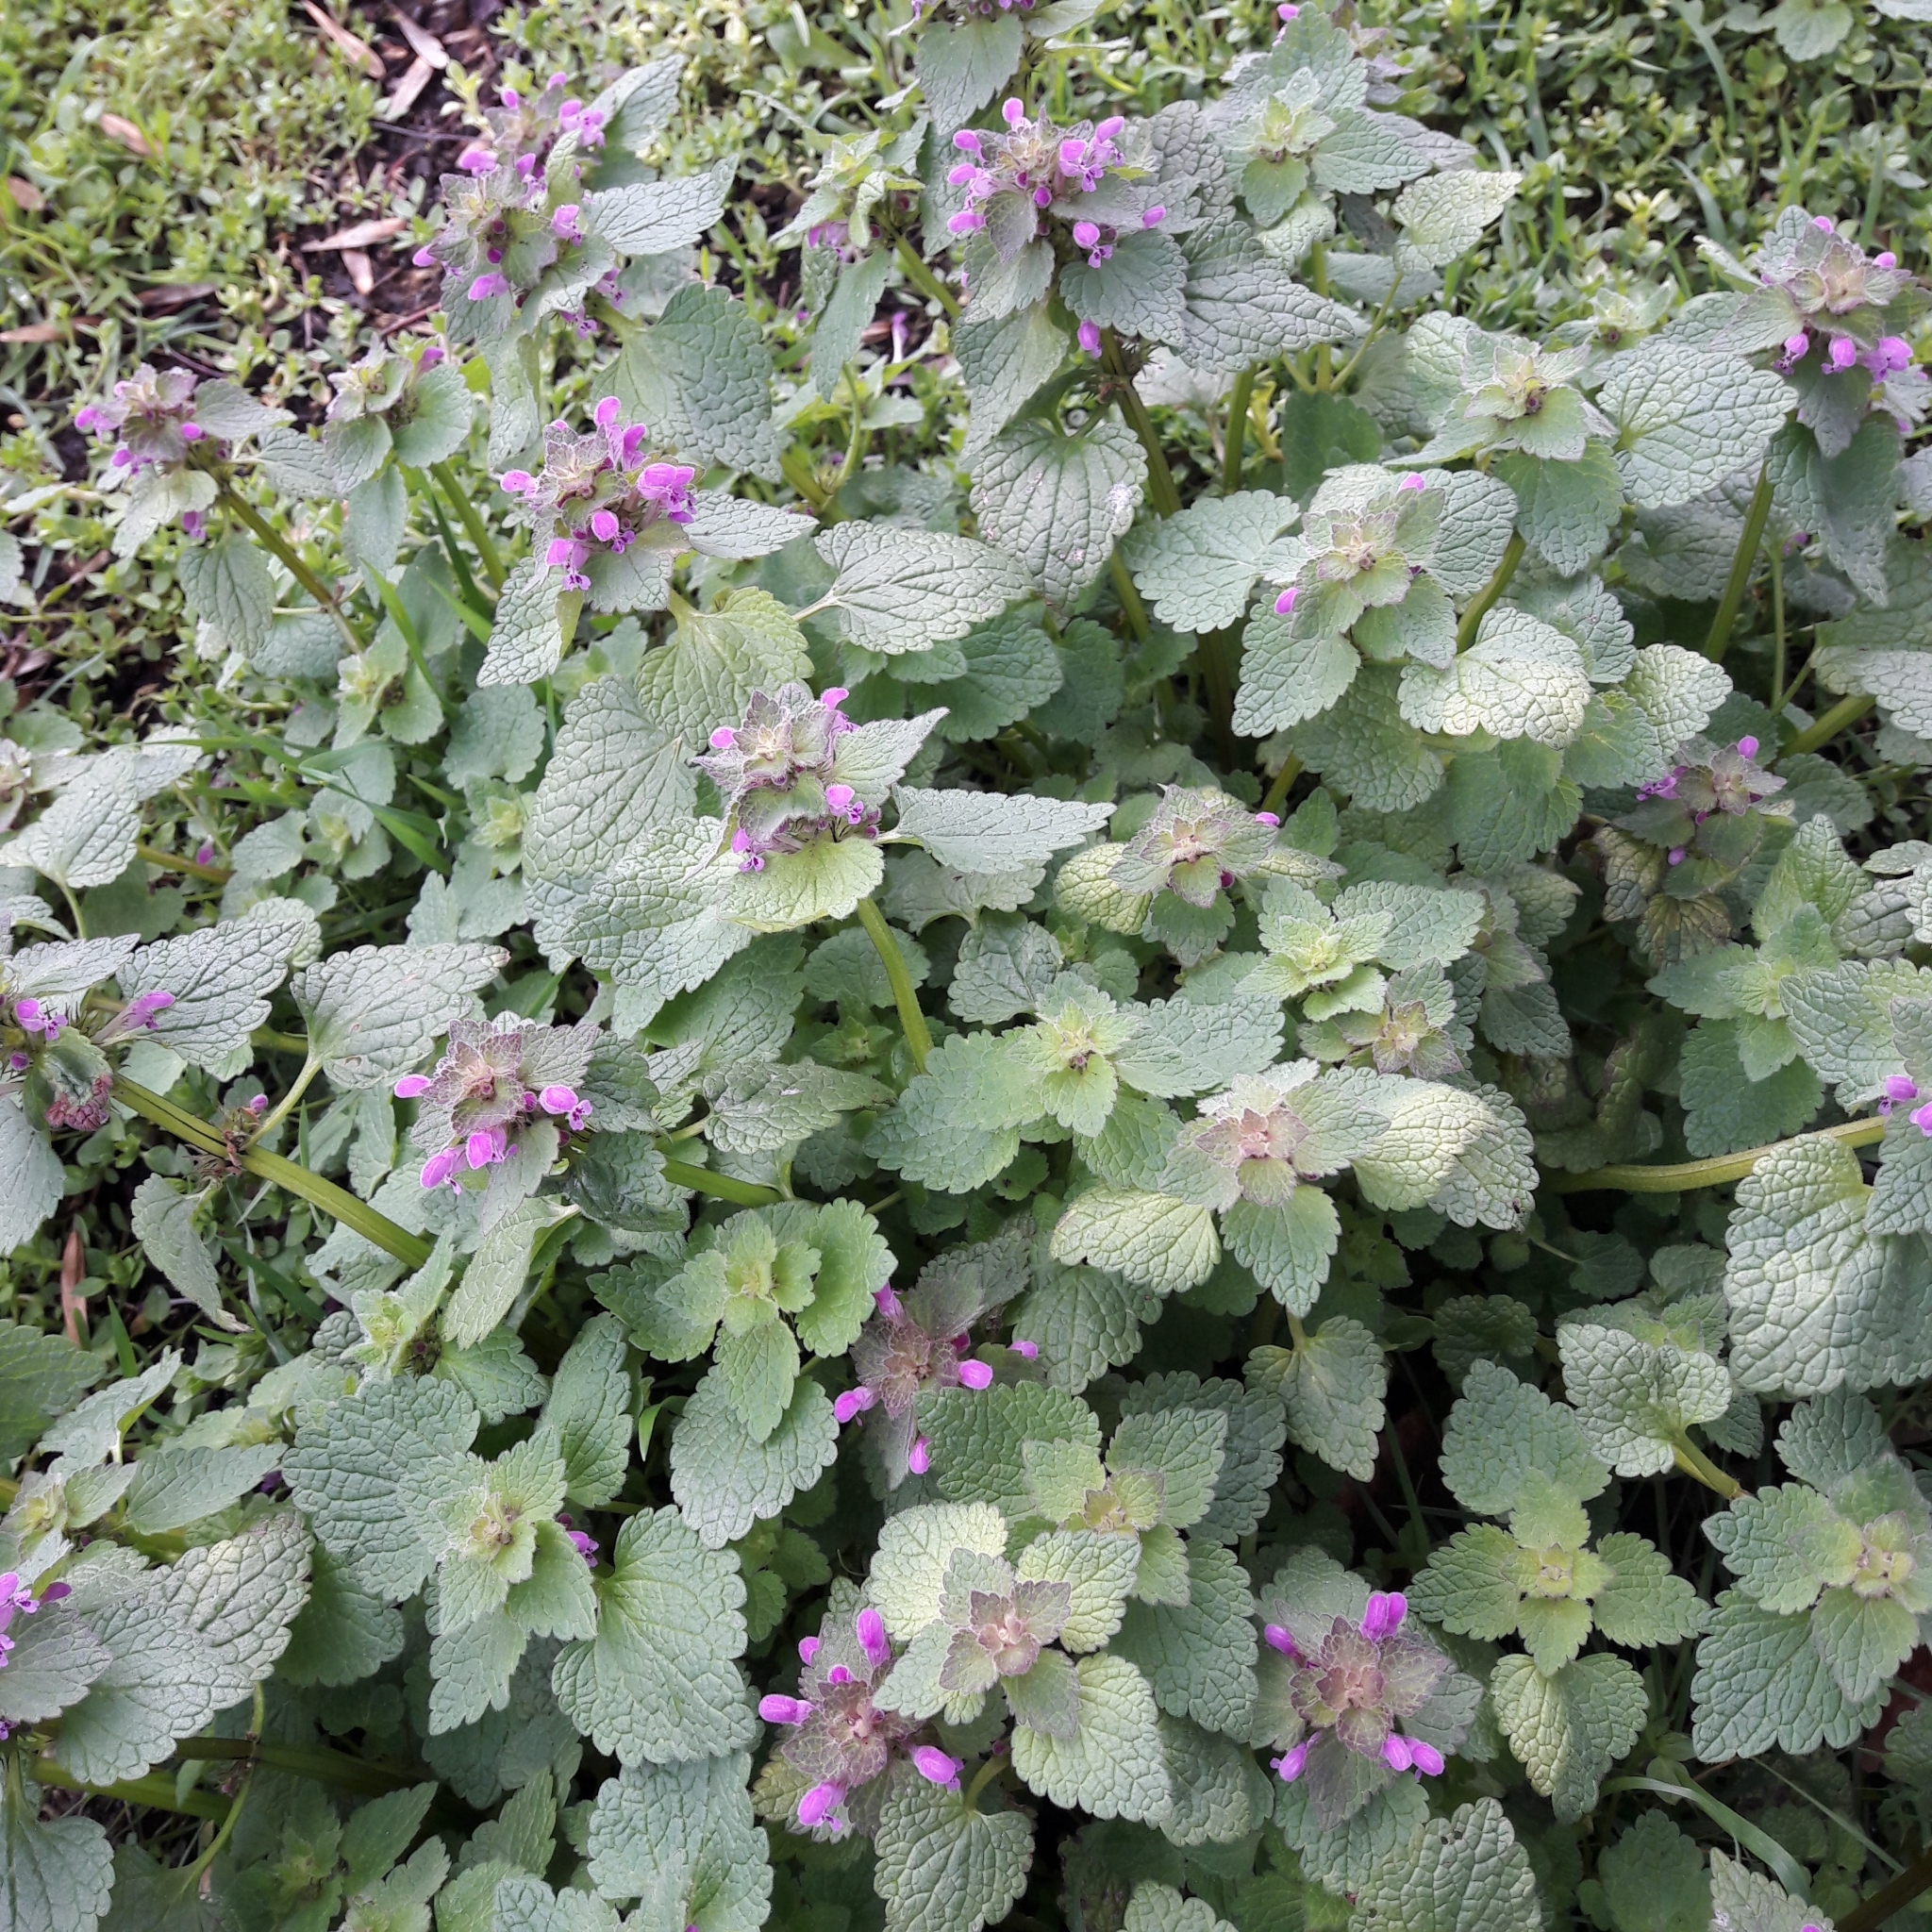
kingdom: Plantae
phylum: Tracheophyta
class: Magnoliopsida
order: Lamiales
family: Lamiaceae
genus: Lamium
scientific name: Lamium purpureum
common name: Red dead-nettle
